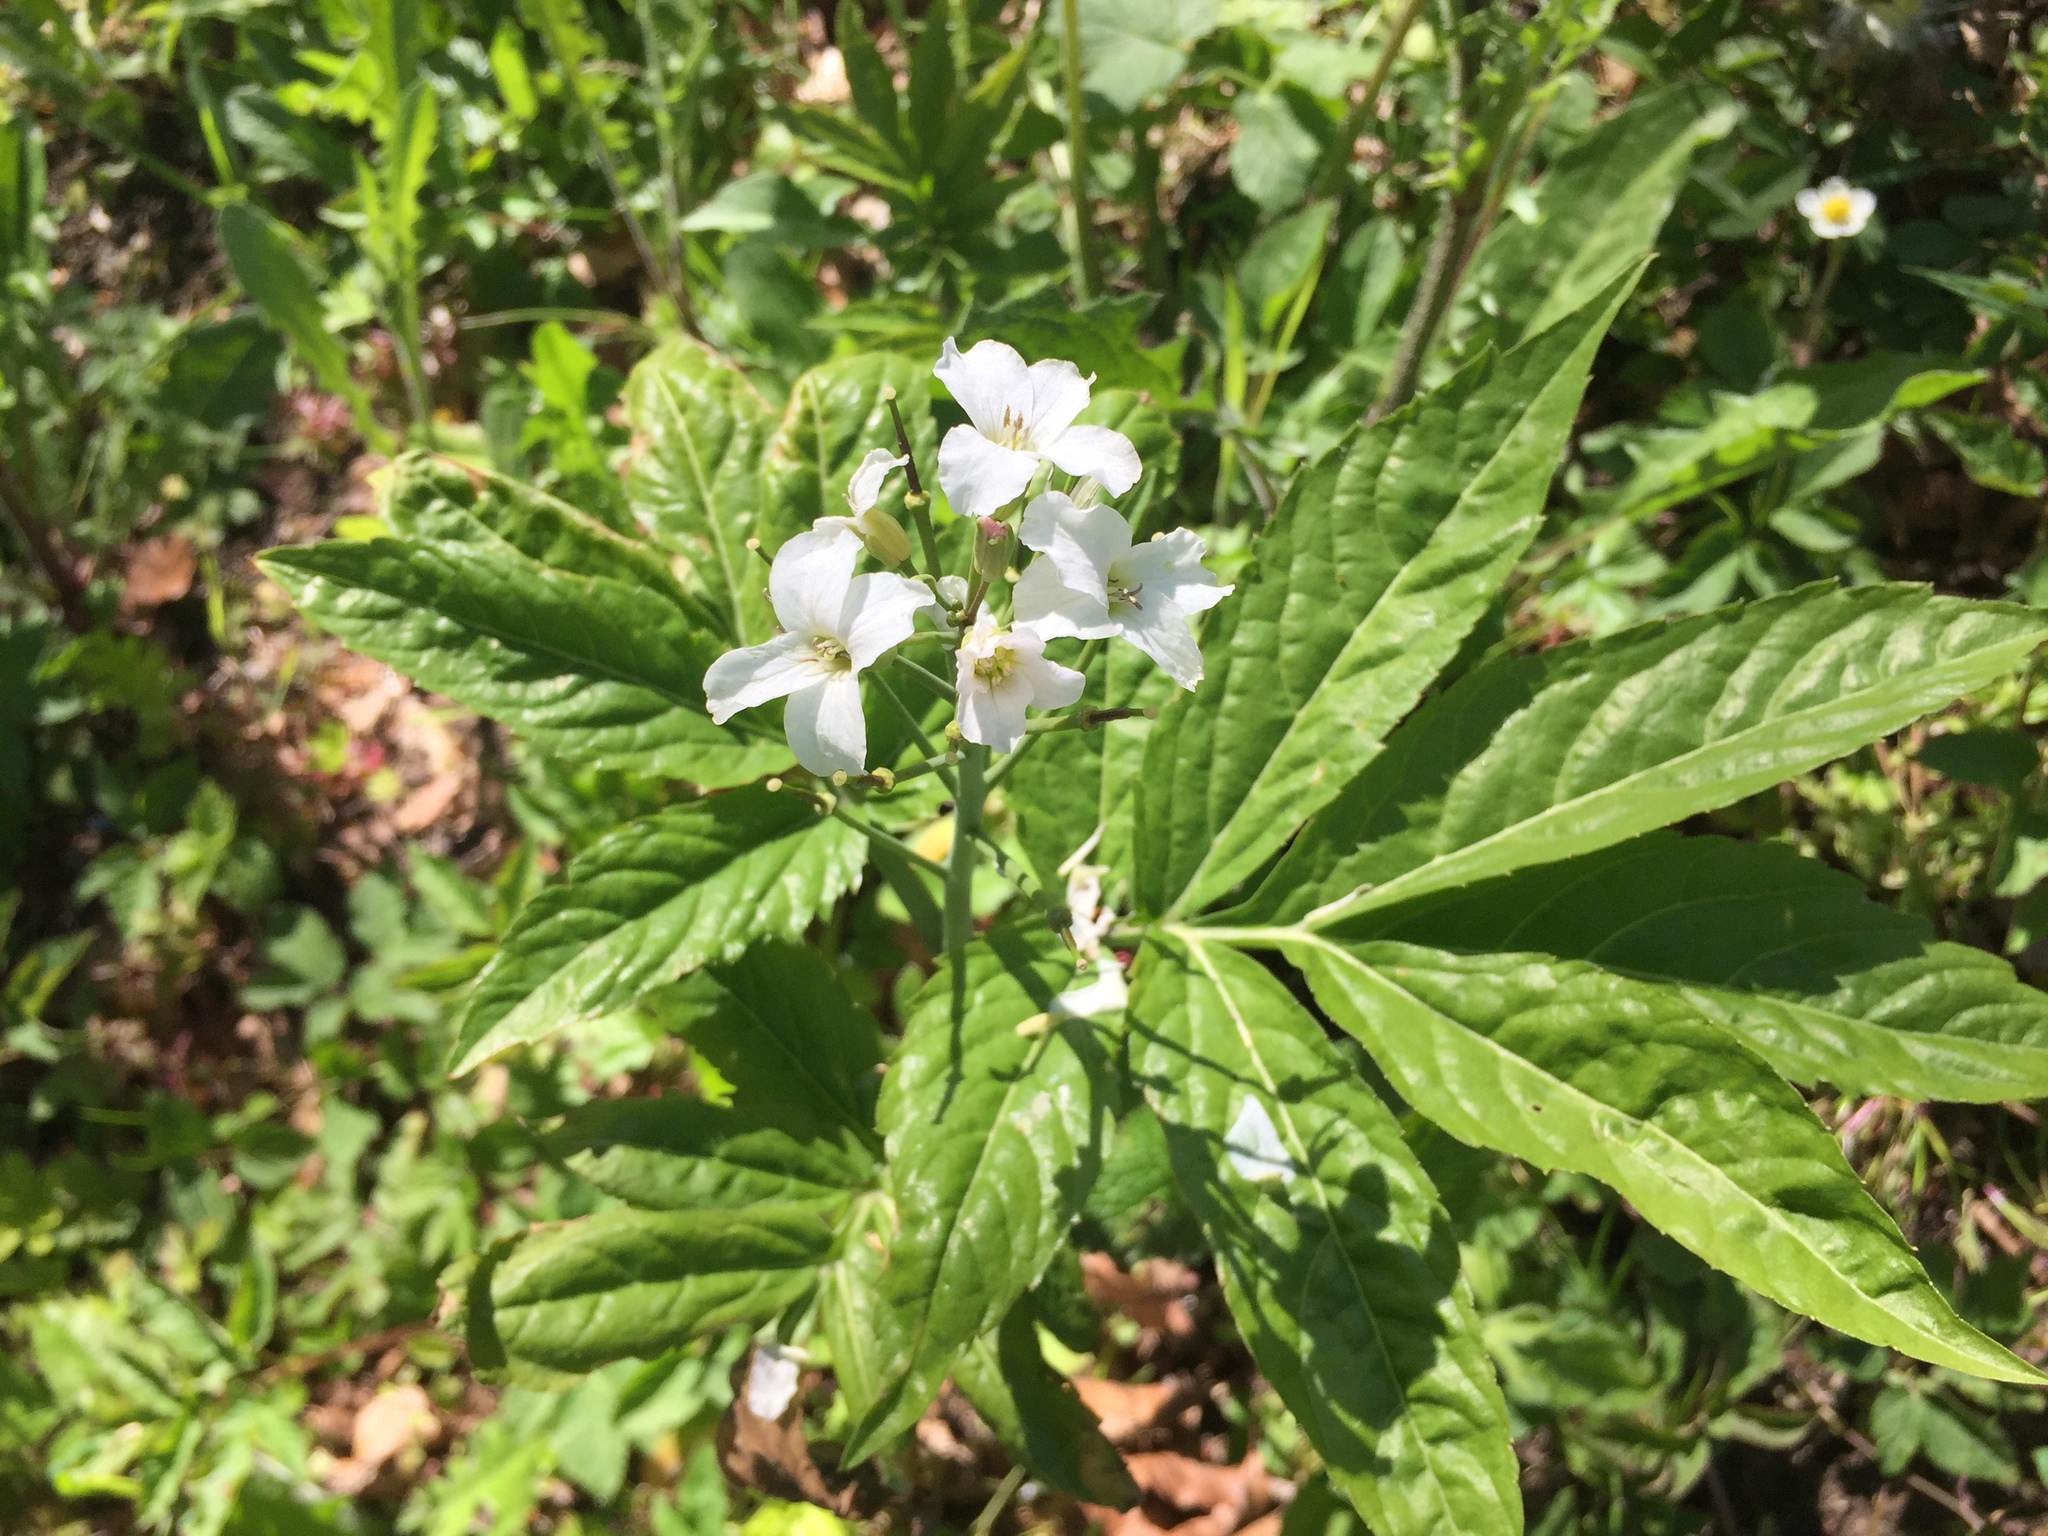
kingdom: Plantae
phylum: Tracheophyta
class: Magnoliopsida
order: Brassicales
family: Brassicaceae
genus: Cardamine
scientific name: Cardamine heptaphylla
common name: Pinnate coralroot
